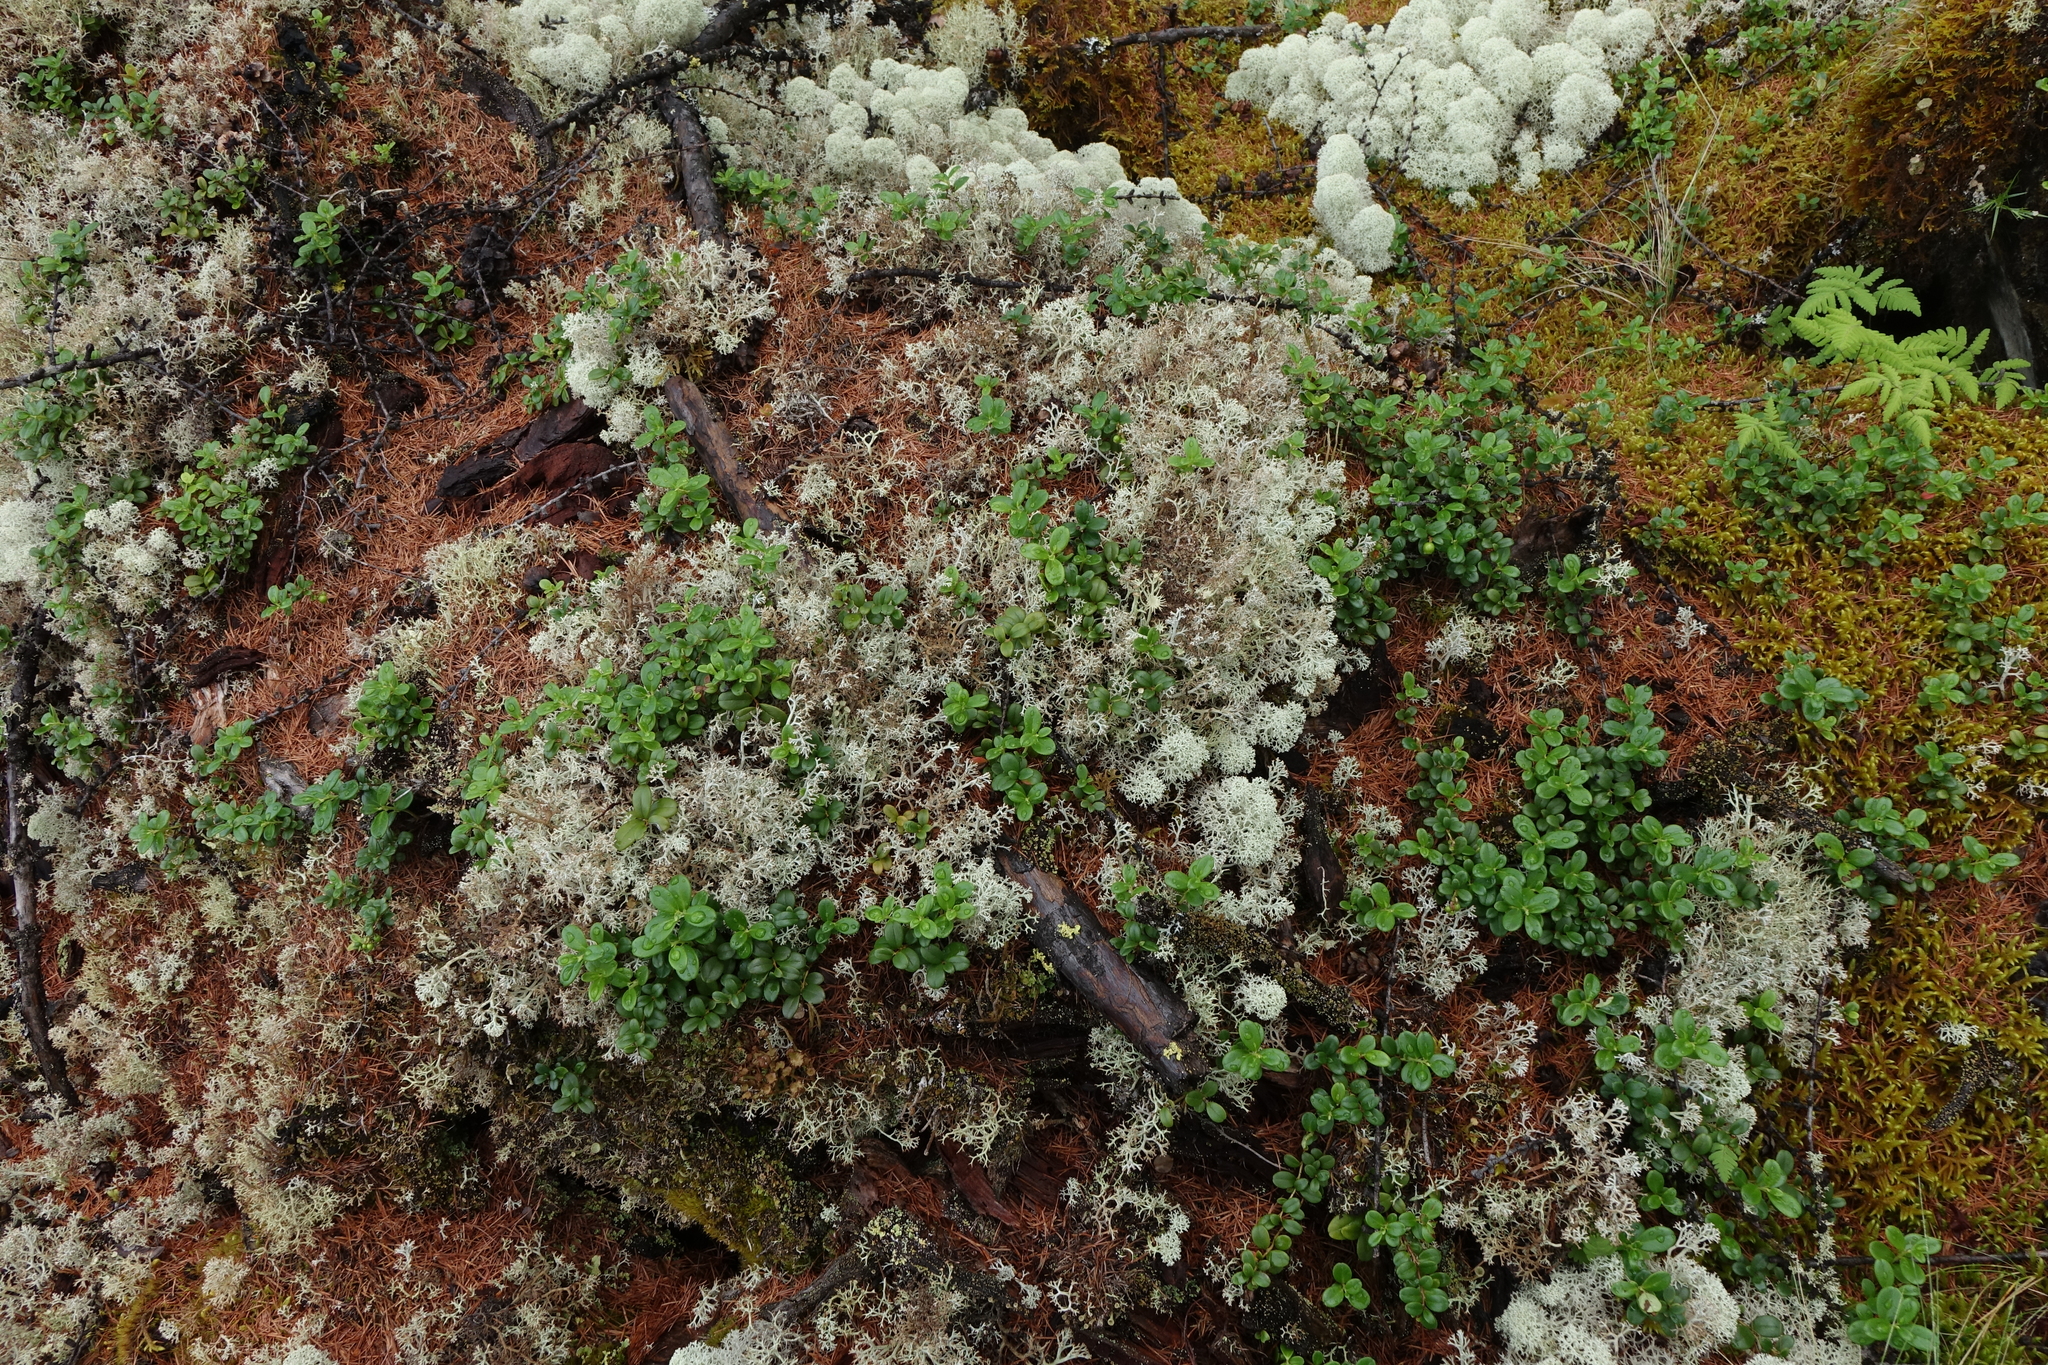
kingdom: Plantae
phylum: Tracheophyta
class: Magnoliopsida
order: Ericales
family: Ericaceae
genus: Vaccinium
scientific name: Vaccinium vitis-idaea
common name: Cowberry
